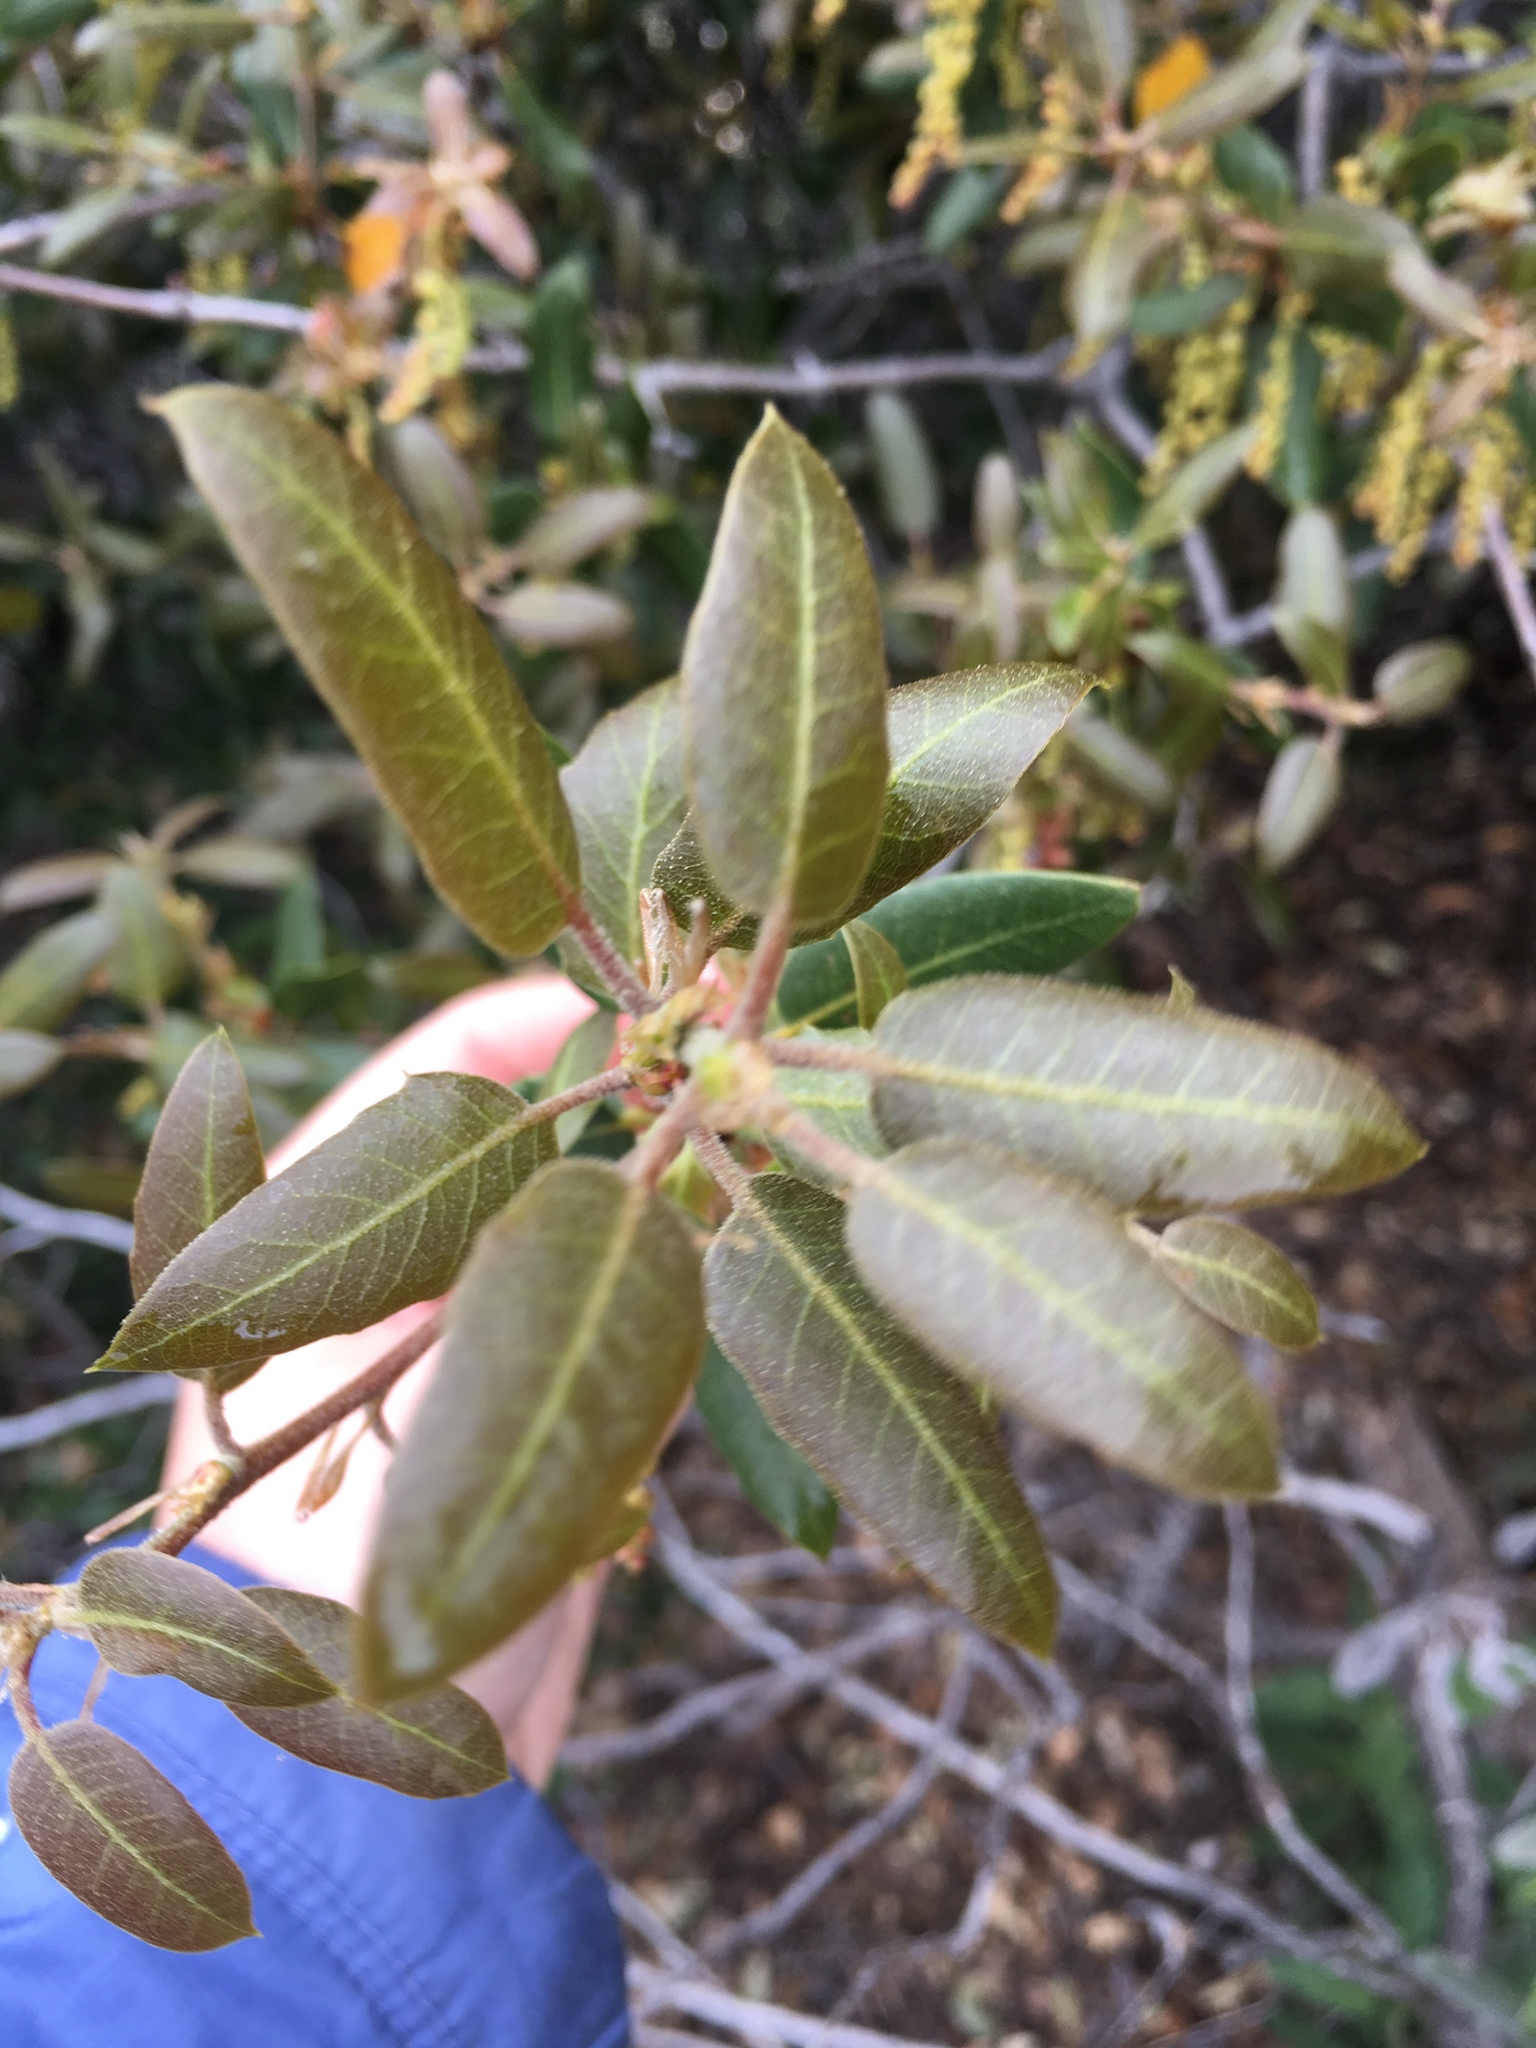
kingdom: Plantae
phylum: Tracheophyta
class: Magnoliopsida
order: Fagales
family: Fagaceae
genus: Quercus
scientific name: Quercus ilex
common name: Evergreen oak
